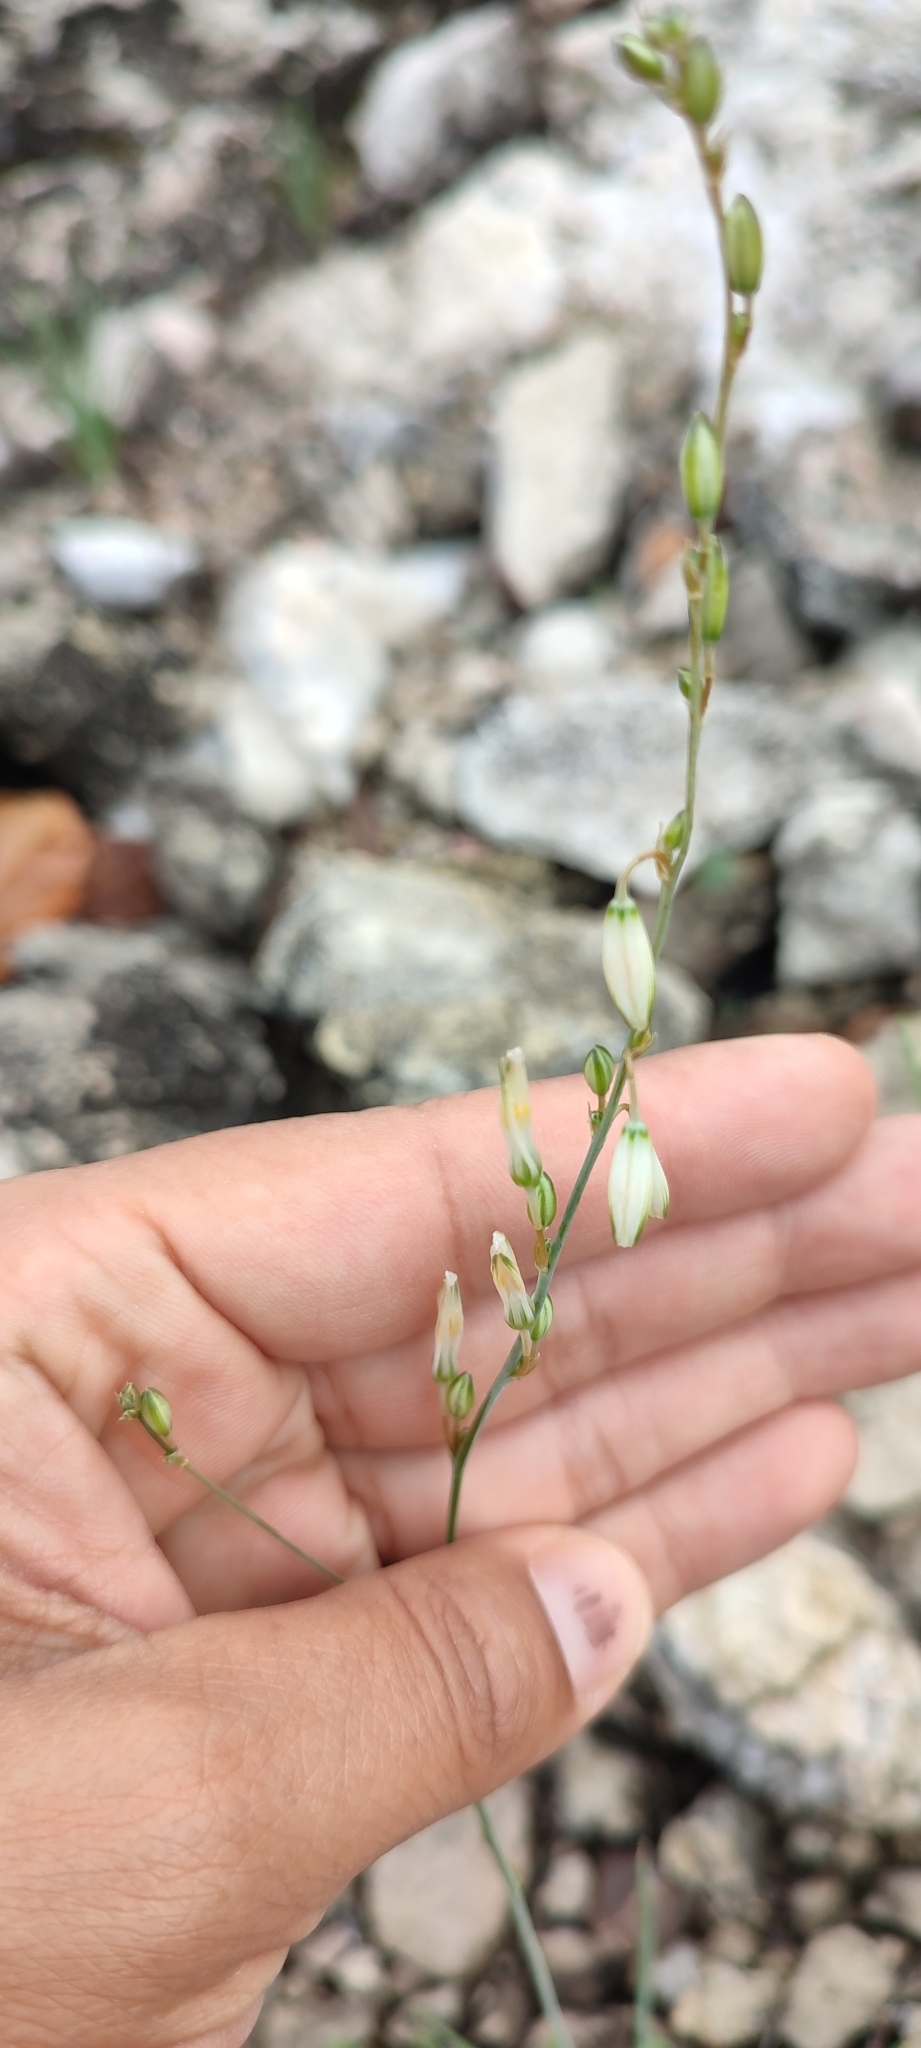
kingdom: Plantae
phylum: Tracheophyta
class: Liliopsida
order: Asparagales
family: Asparagaceae
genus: Echeandia
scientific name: Echeandia graminea
